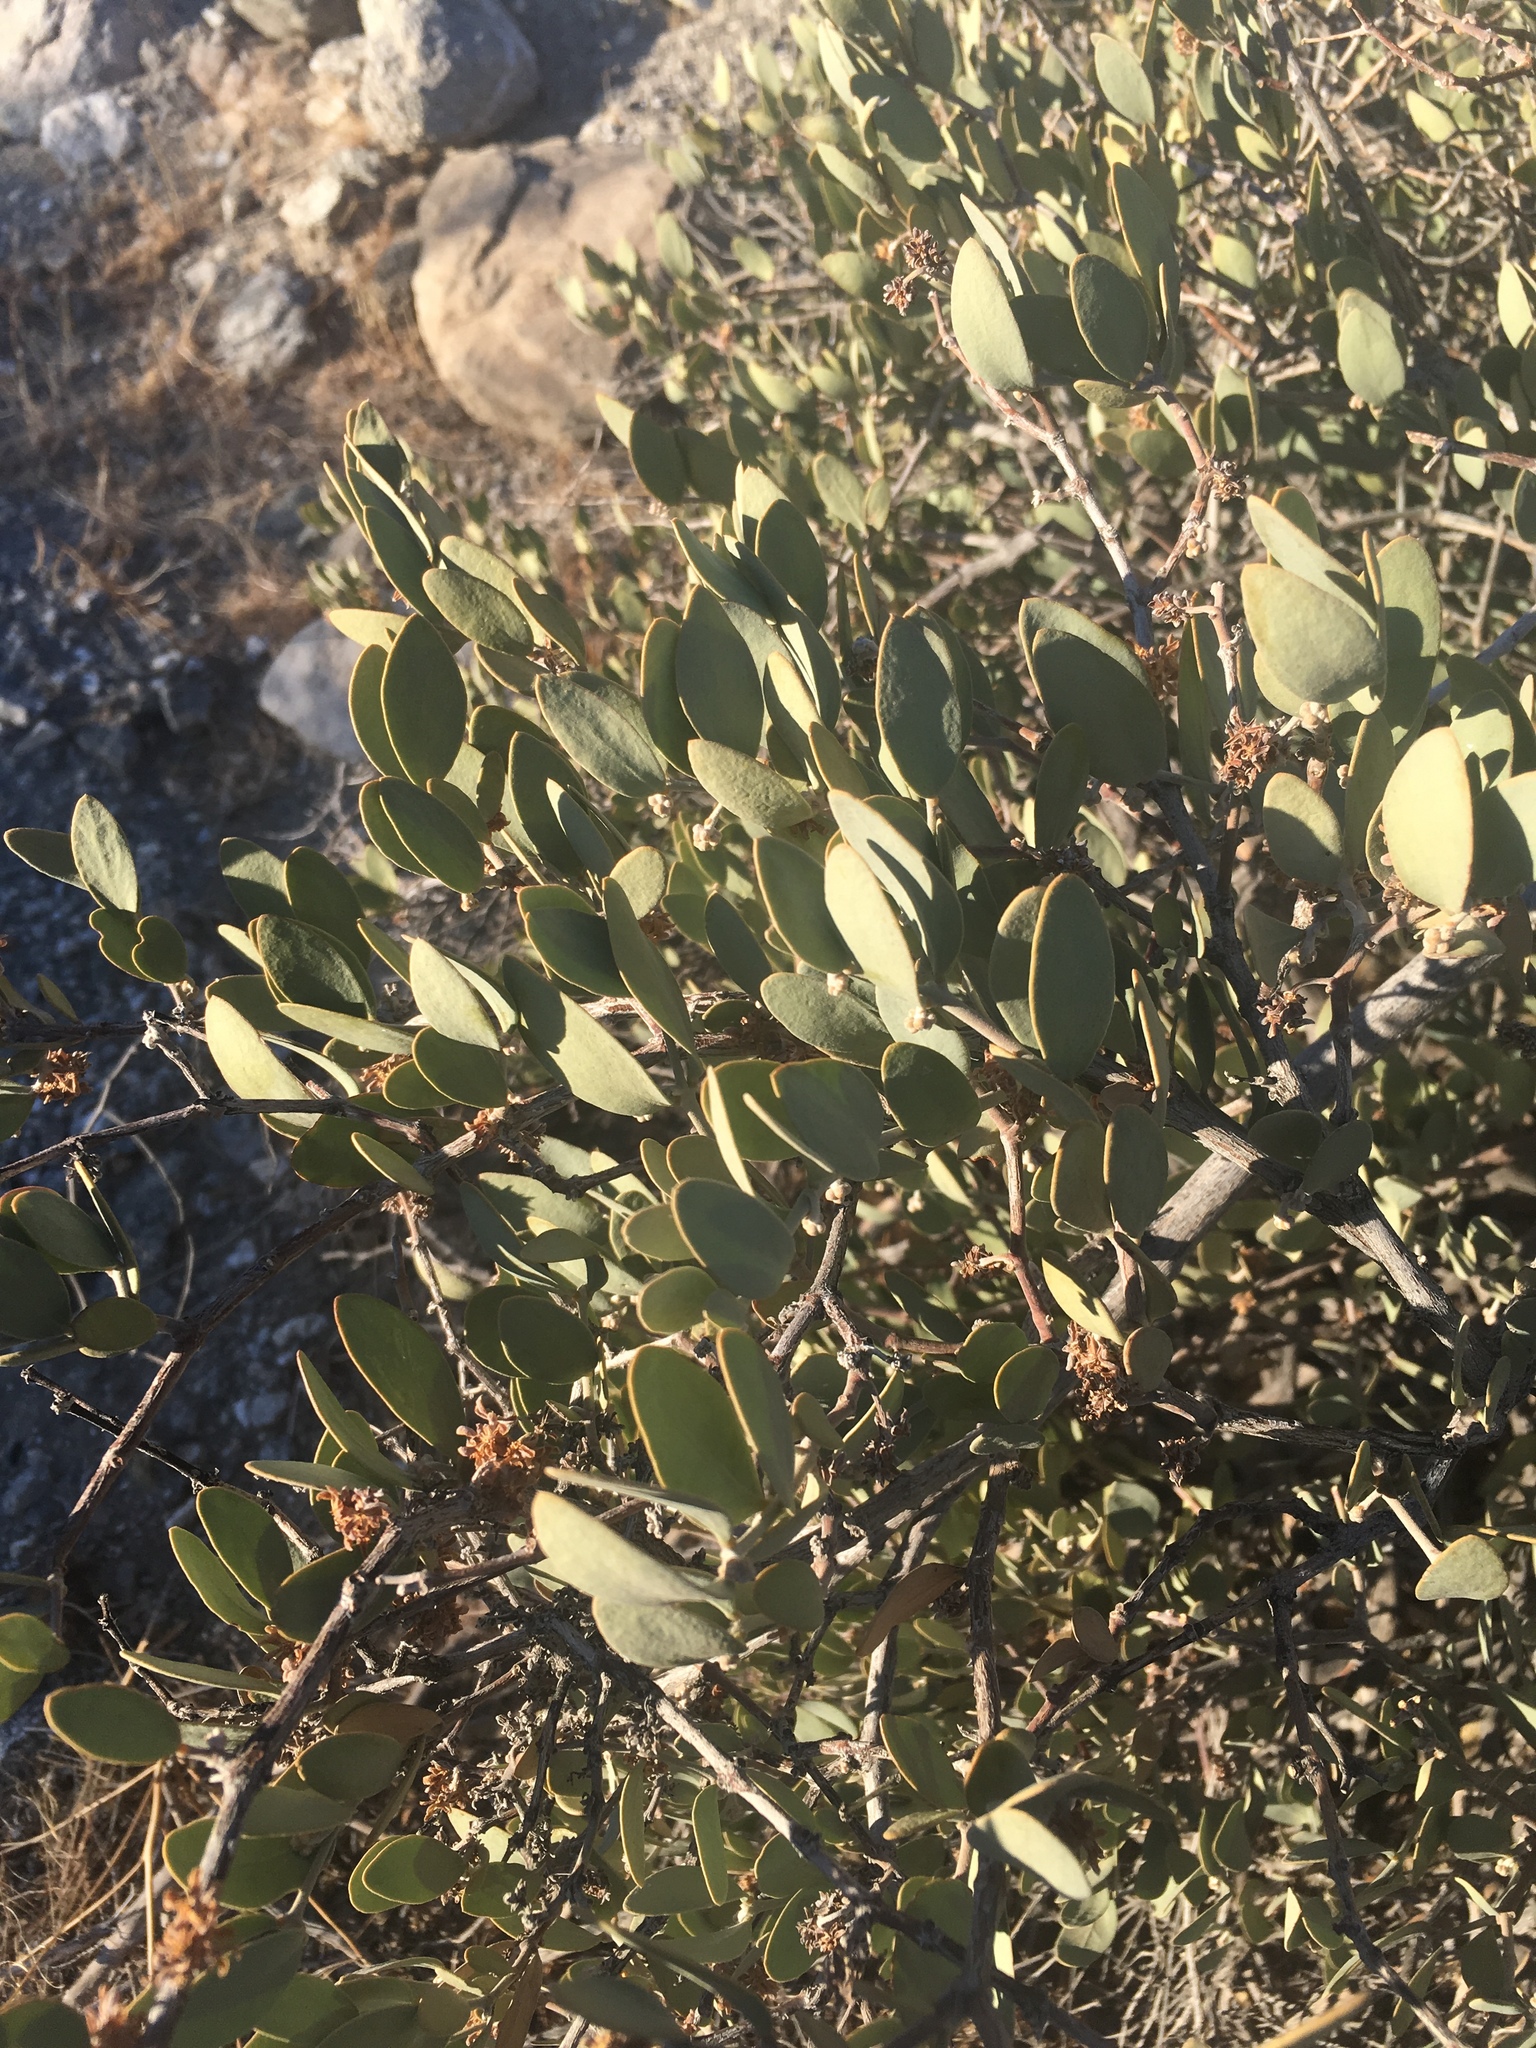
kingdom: Plantae
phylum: Tracheophyta
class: Magnoliopsida
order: Caryophyllales
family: Simmondsiaceae
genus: Simmondsia
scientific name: Simmondsia chinensis
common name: Jojoba
